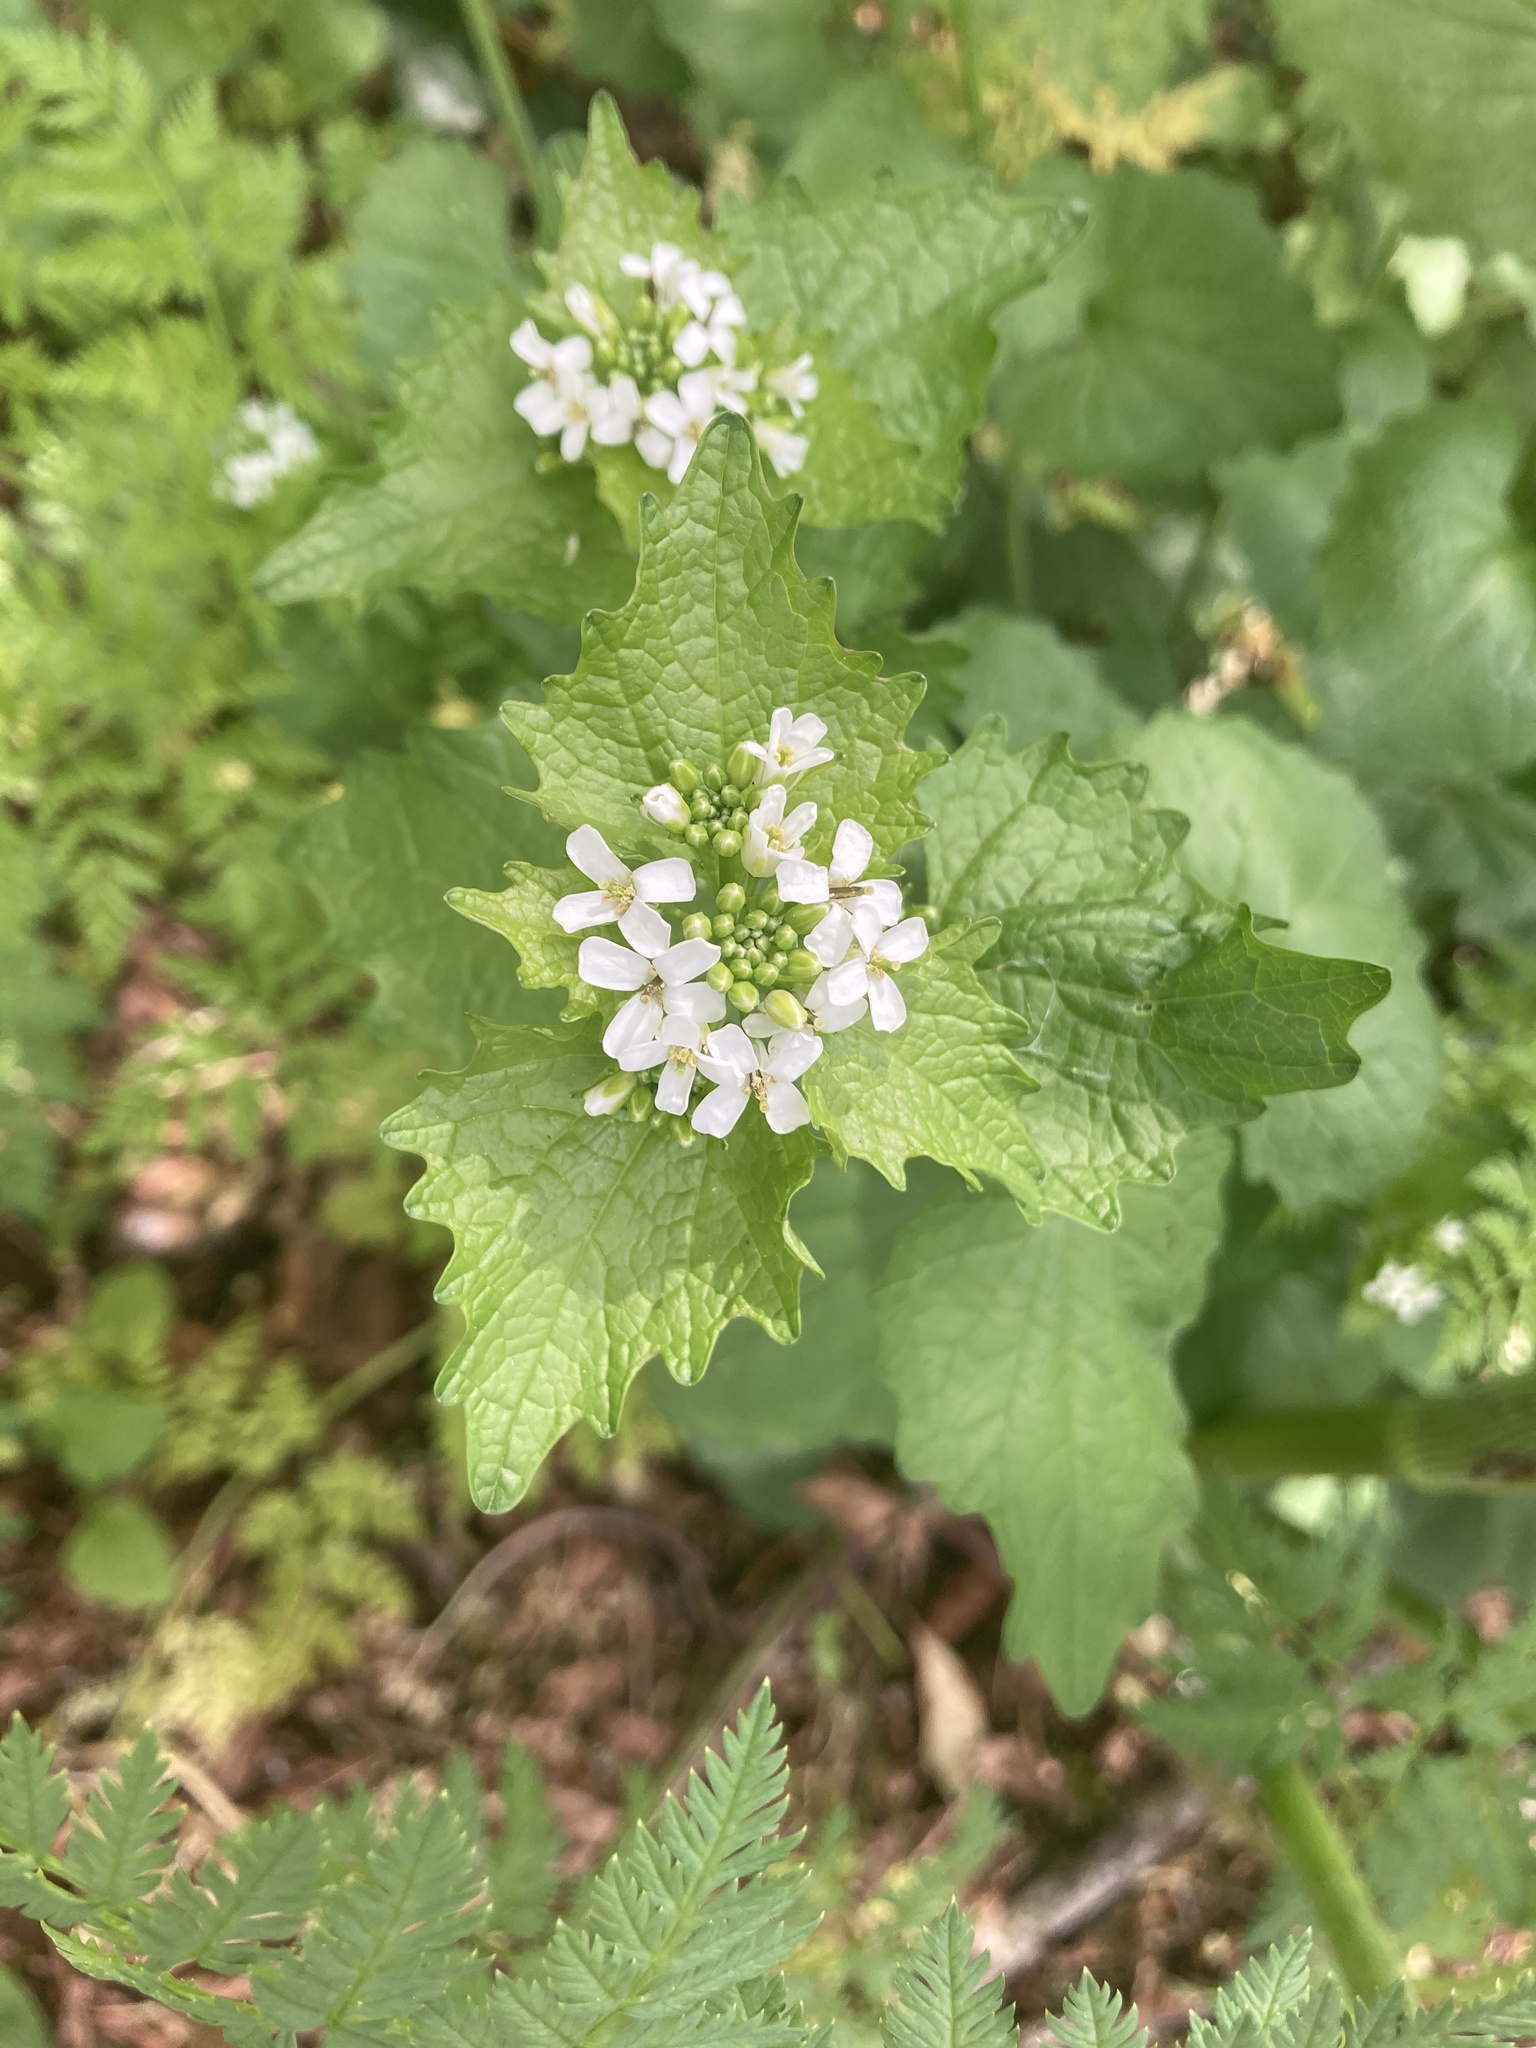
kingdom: Plantae
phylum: Tracheophyta
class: Magnoliopsida
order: Brassicales
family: Brassicaceae
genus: Alliaria
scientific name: Alliaria petiolata
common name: Garlic mustard
